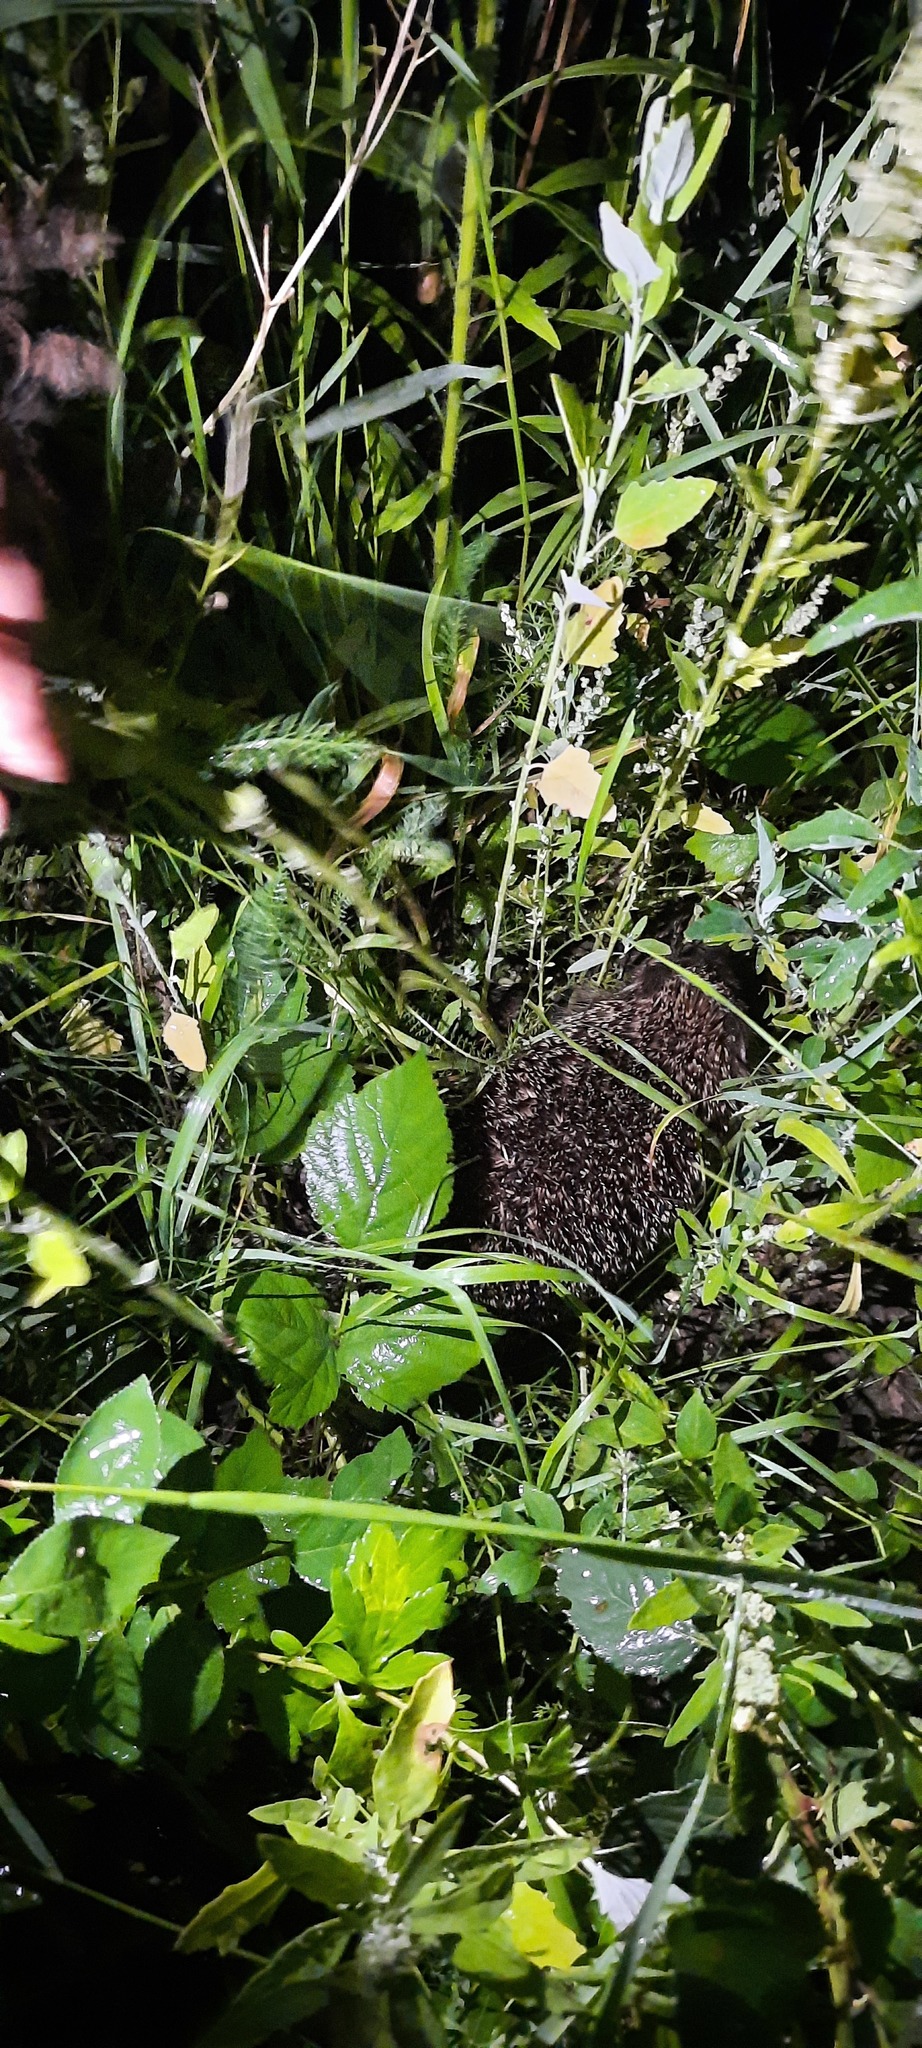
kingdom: Animalia
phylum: Chordata
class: Mammalia
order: Erinaceomorpha
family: Erinaceidae
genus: Erinaceus
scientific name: Erinaceus europaeus
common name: West european hedgehog
